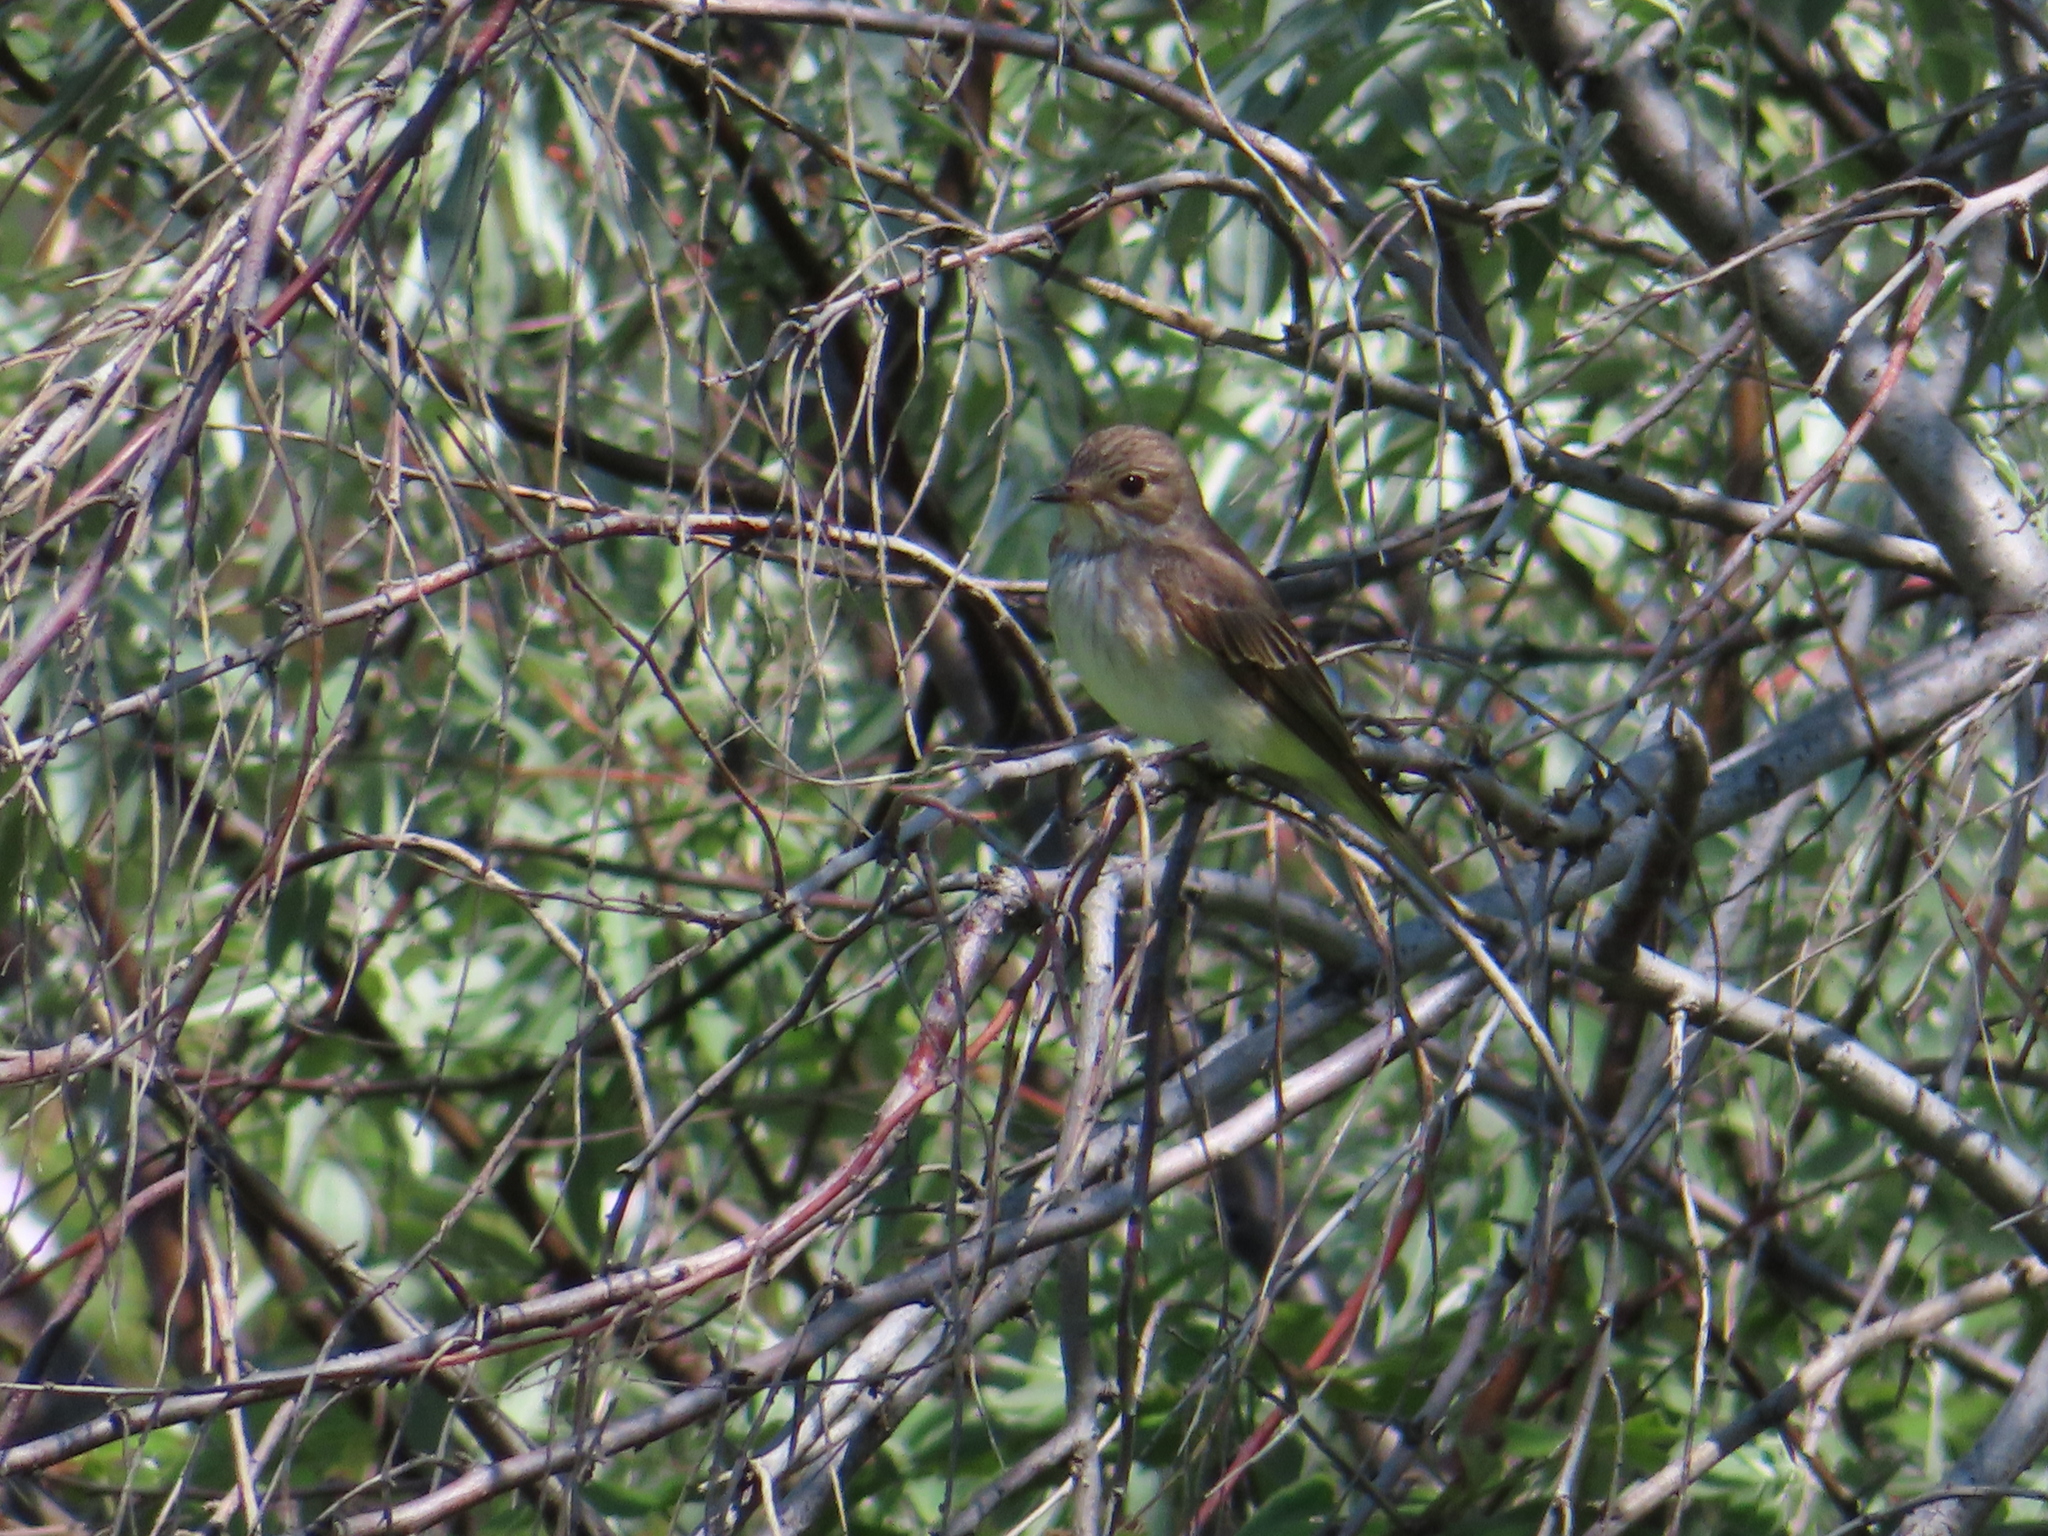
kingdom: Animalia
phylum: Chordata
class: Aves
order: Passeriformes
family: Muscicapidae
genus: Muscicapa
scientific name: Muscicapa striata
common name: Spotted flycatcher
